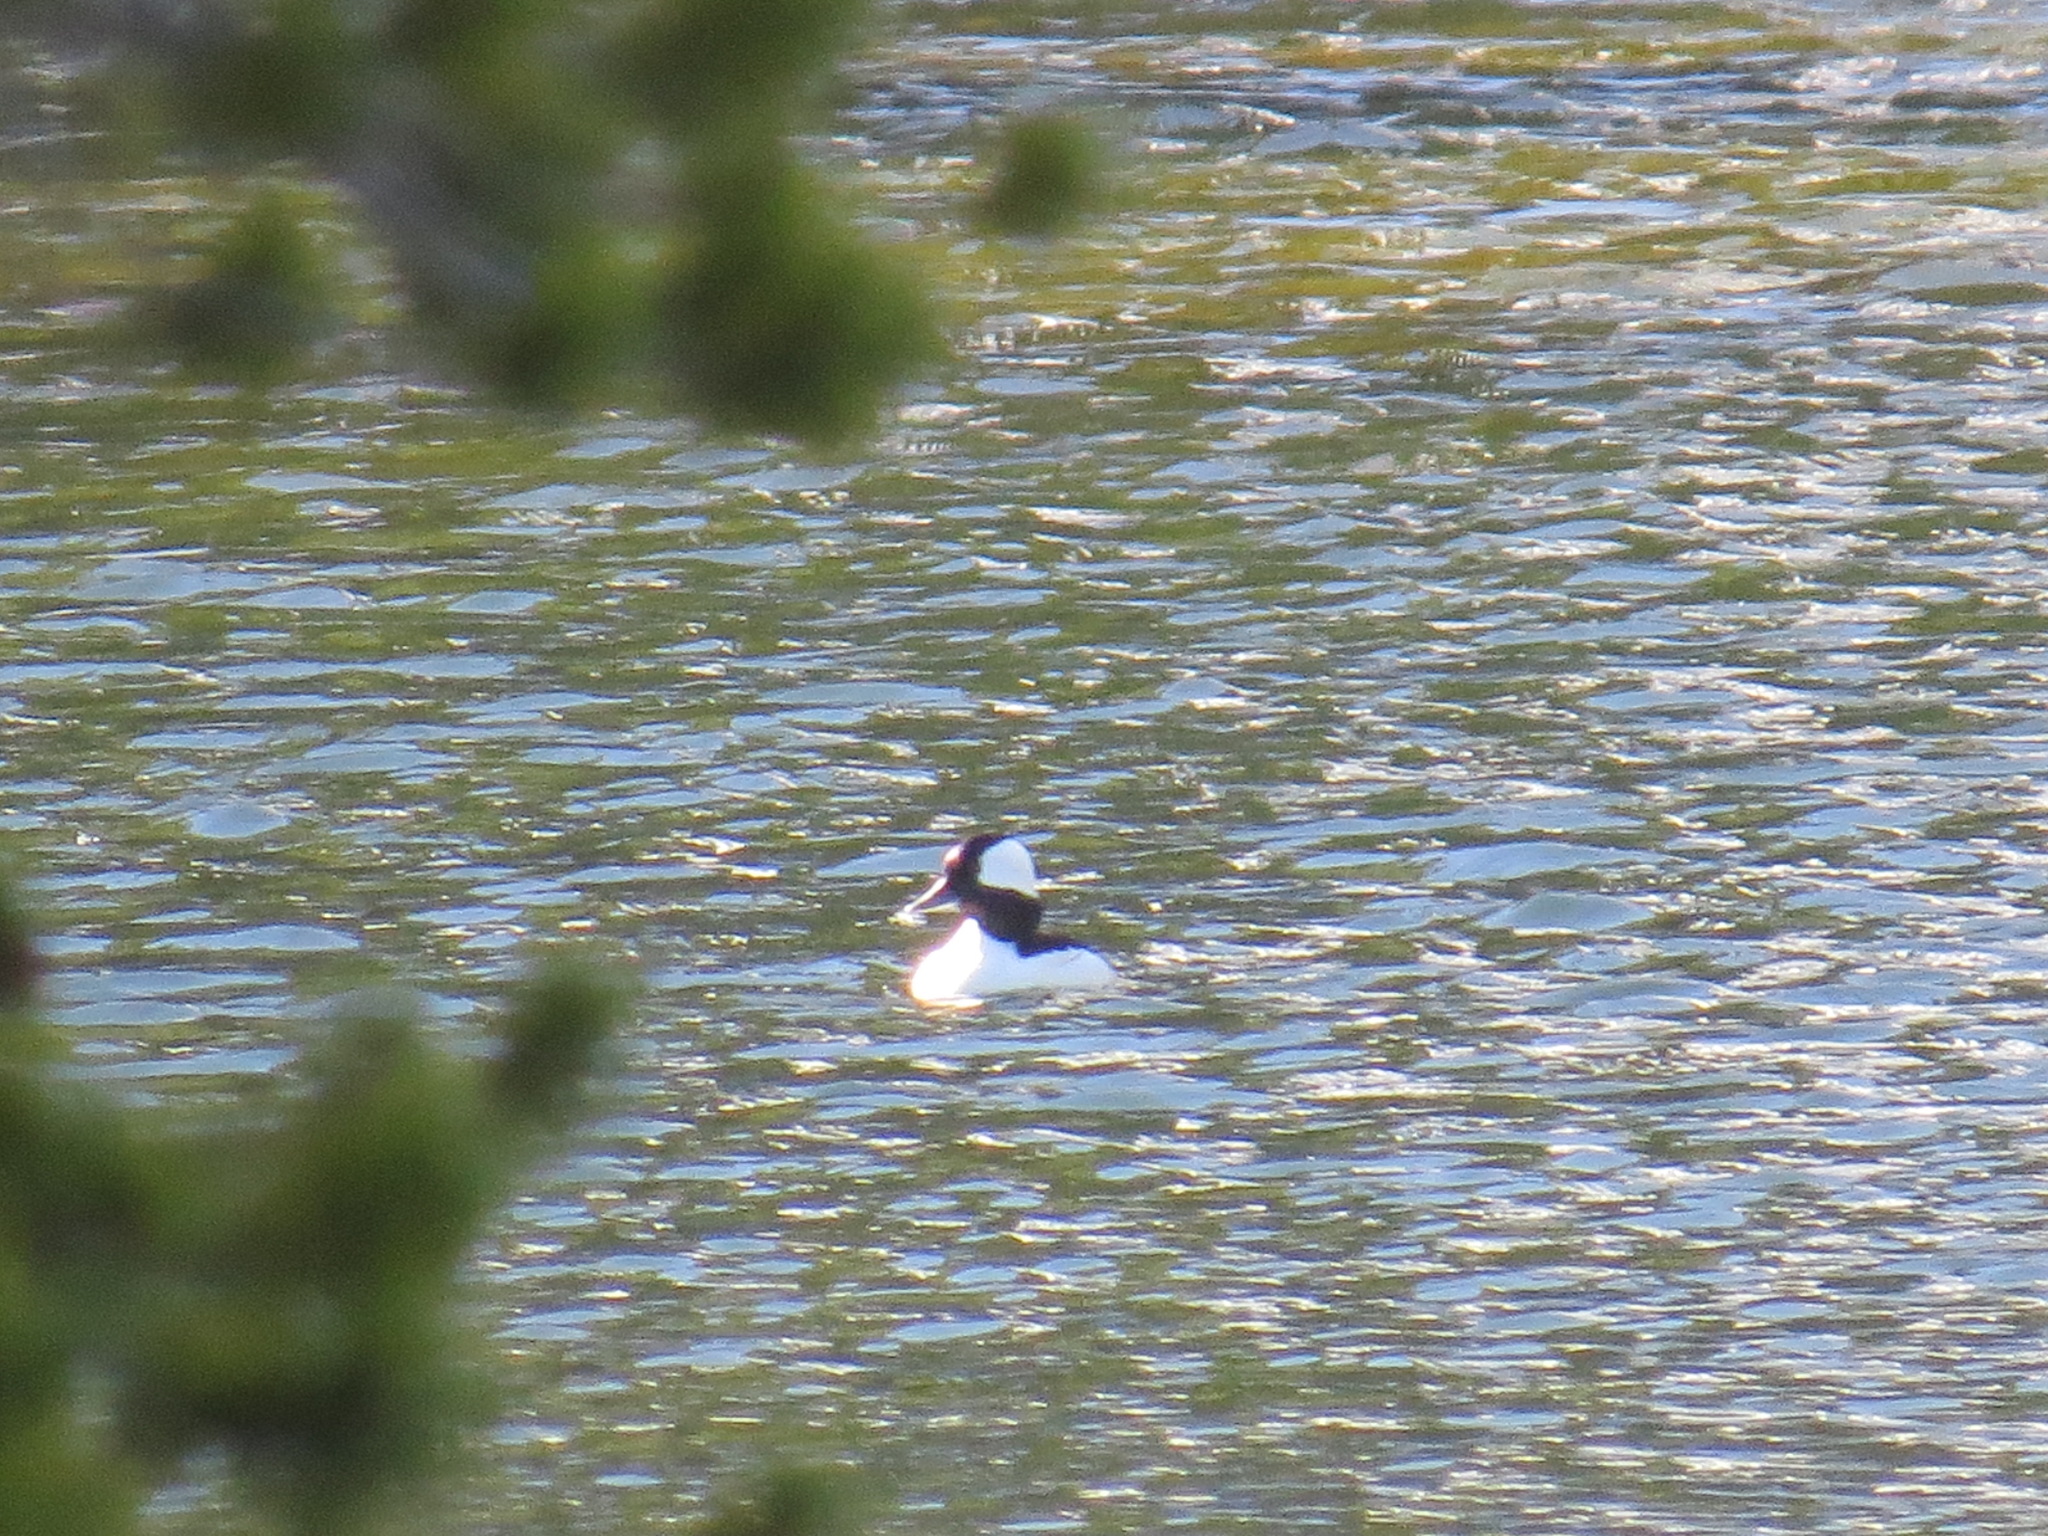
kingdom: Animalia
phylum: Chordata
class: Aves
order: Anseriformes
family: Anatidae
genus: Bucephala
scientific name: Bucephala albeola
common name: Bufflehead
